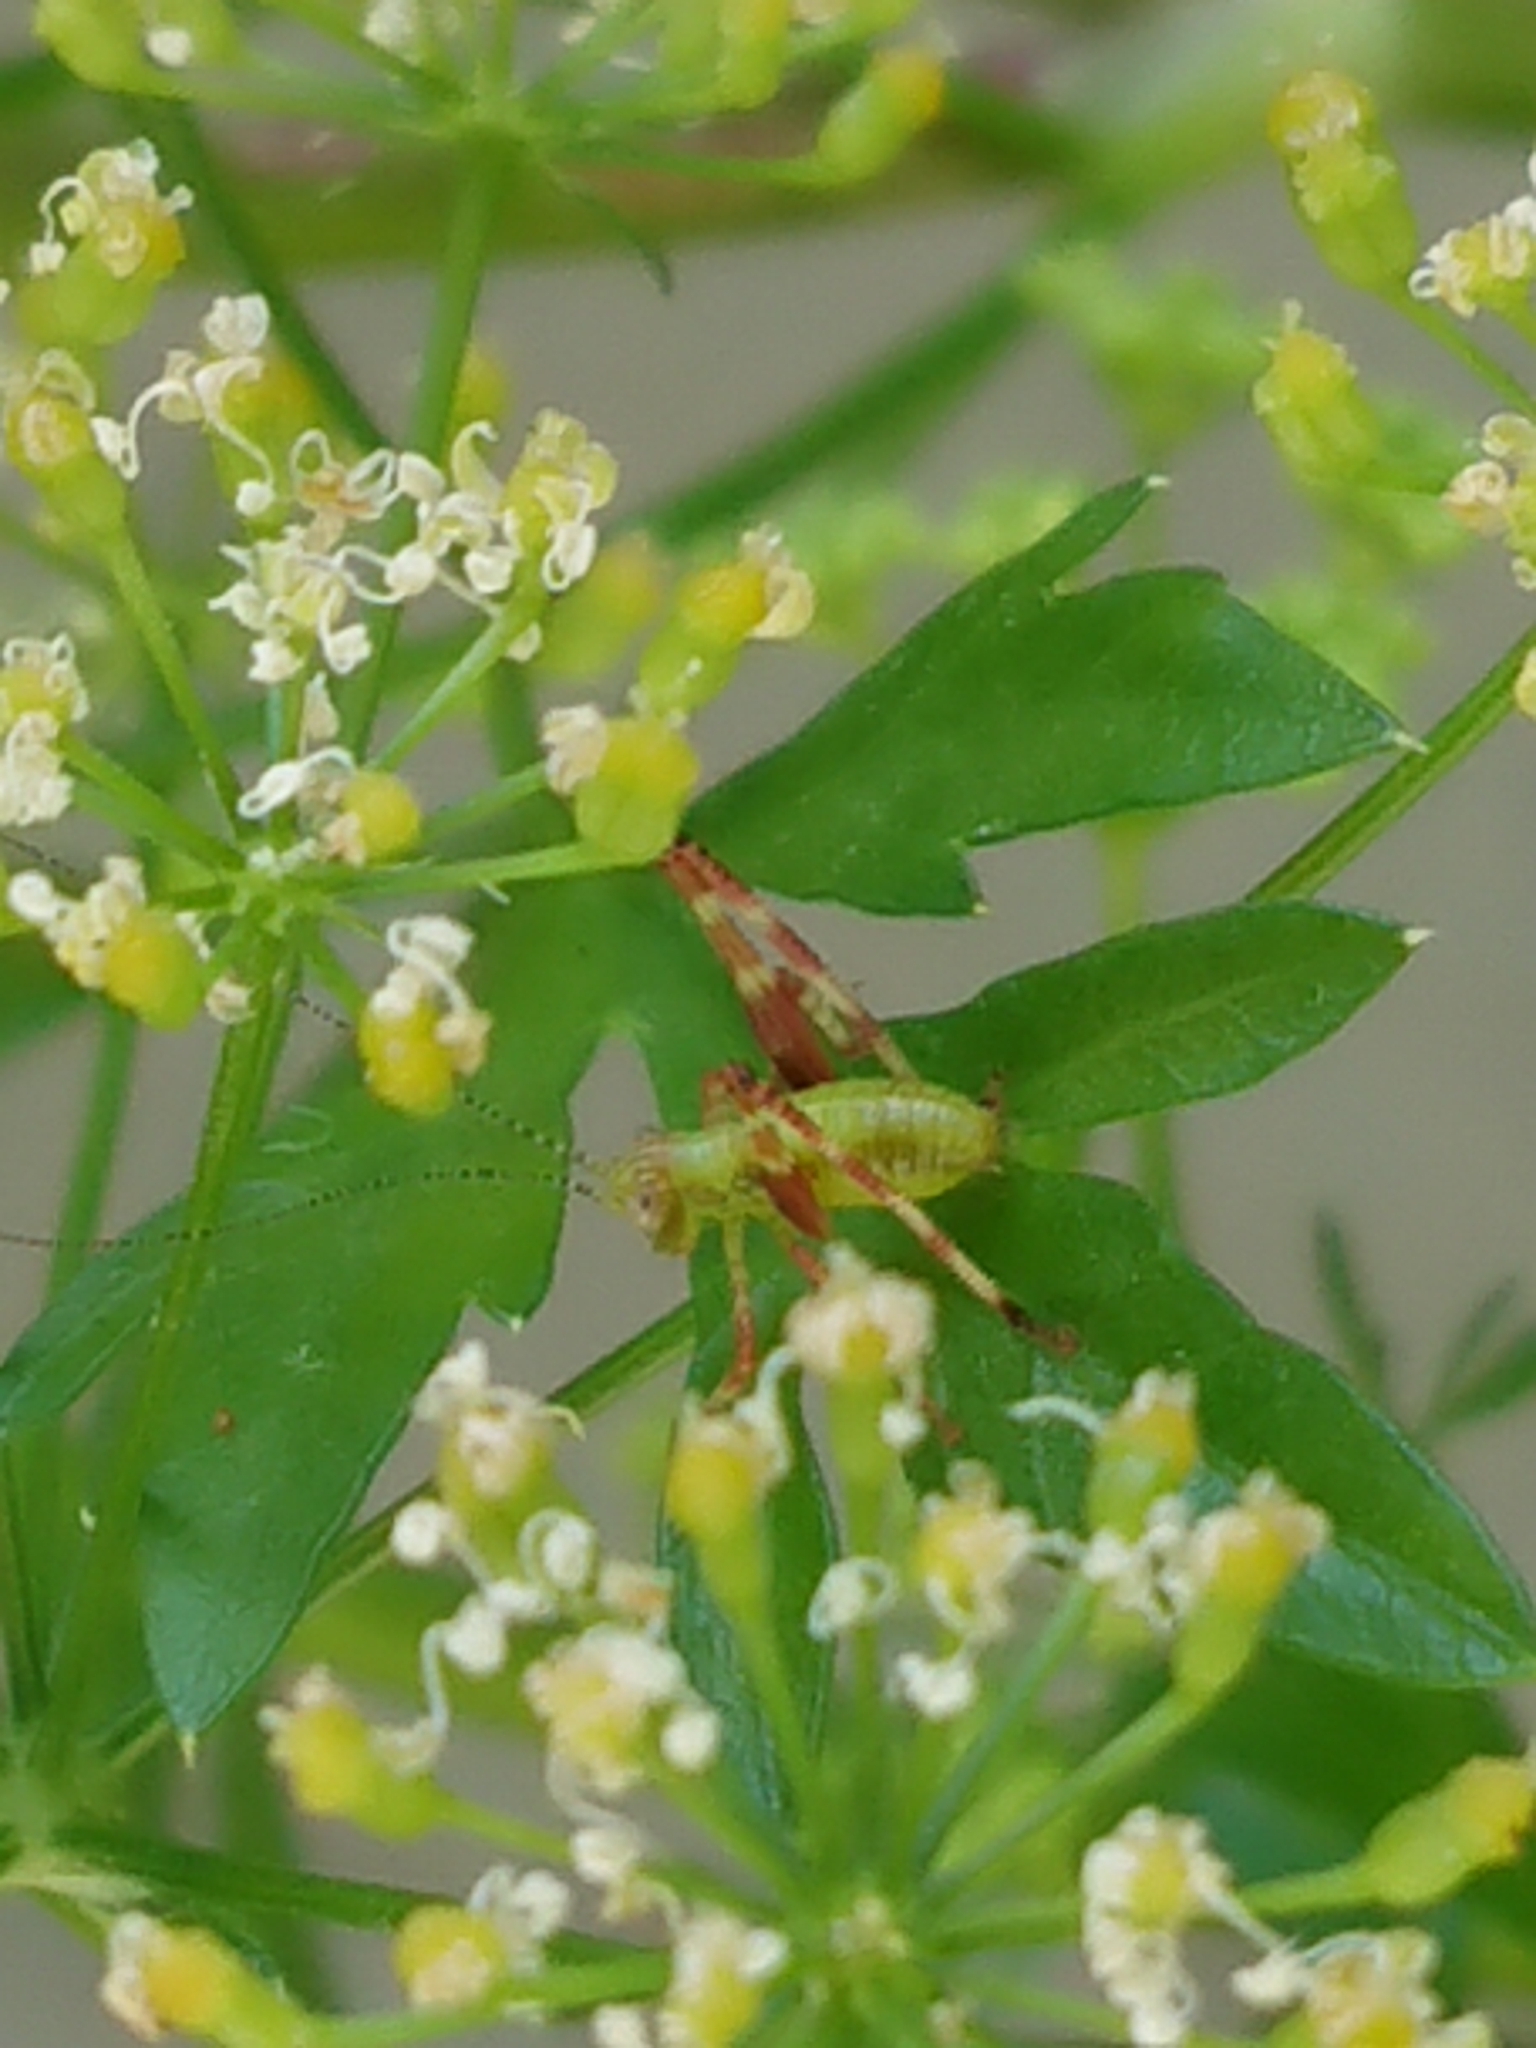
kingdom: Animalia
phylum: Arthropoda
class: Insecta
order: Orthoptera
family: Tettigoniidae
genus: Caedicia
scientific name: Caedicia simplex
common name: Common garden katydid
